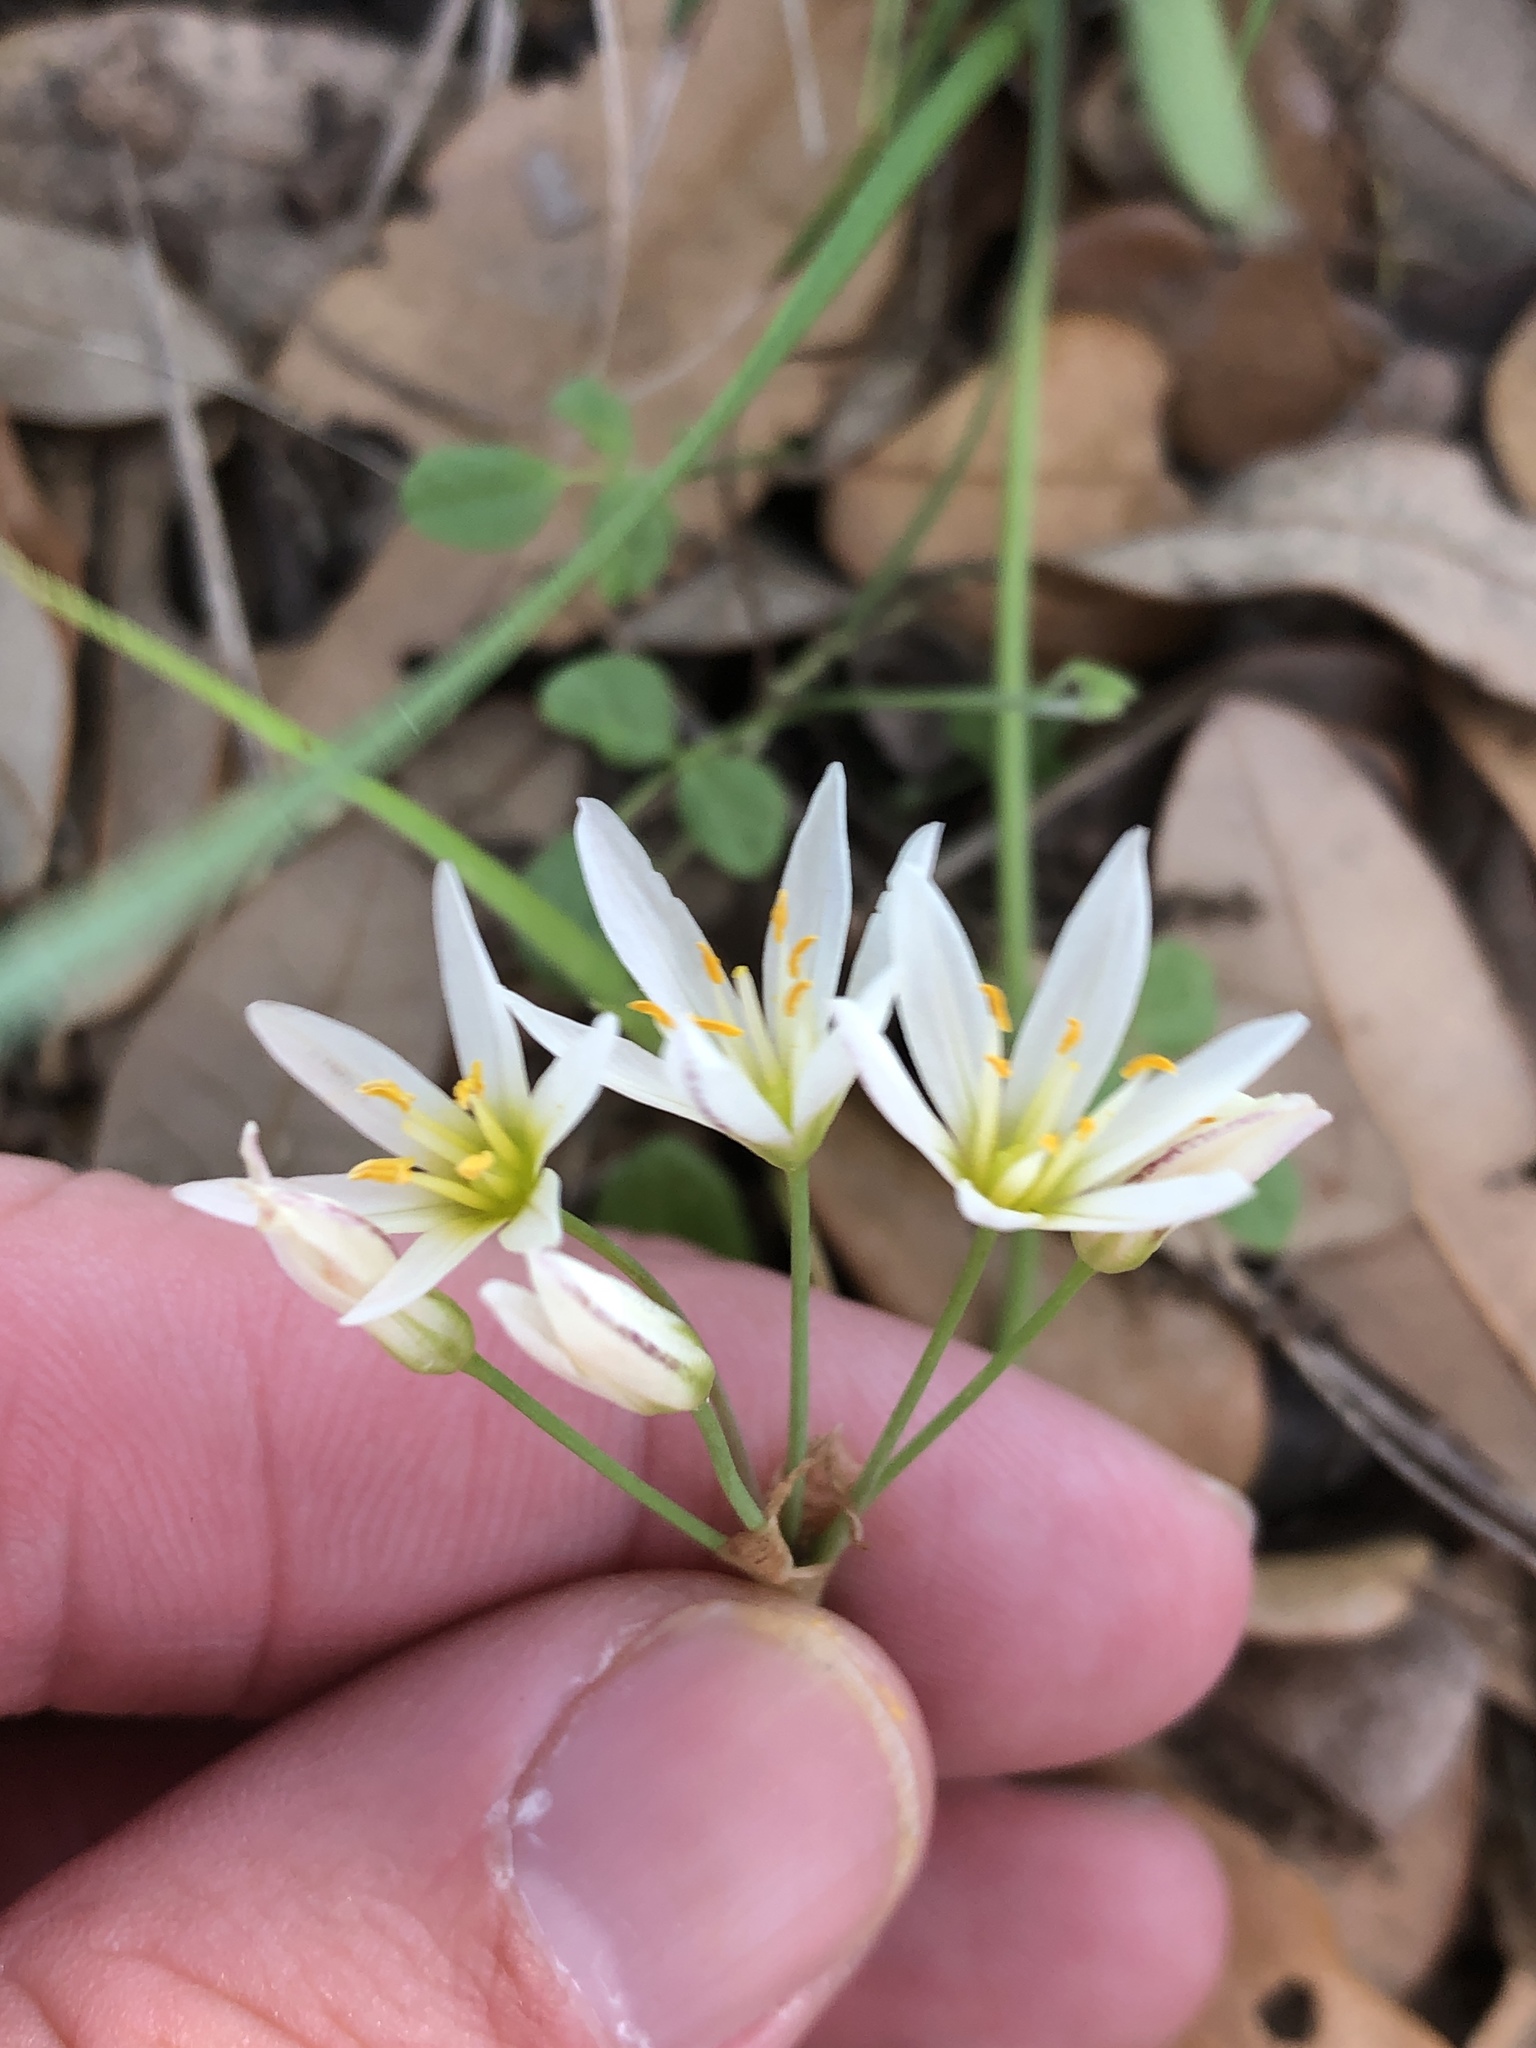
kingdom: Plantae
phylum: Tracheophyta
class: Liliopsida
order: Asparagales
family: Amaryllidaceae
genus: Nothoscordum
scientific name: Nothoscordum bivalve
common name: Crow-poison
